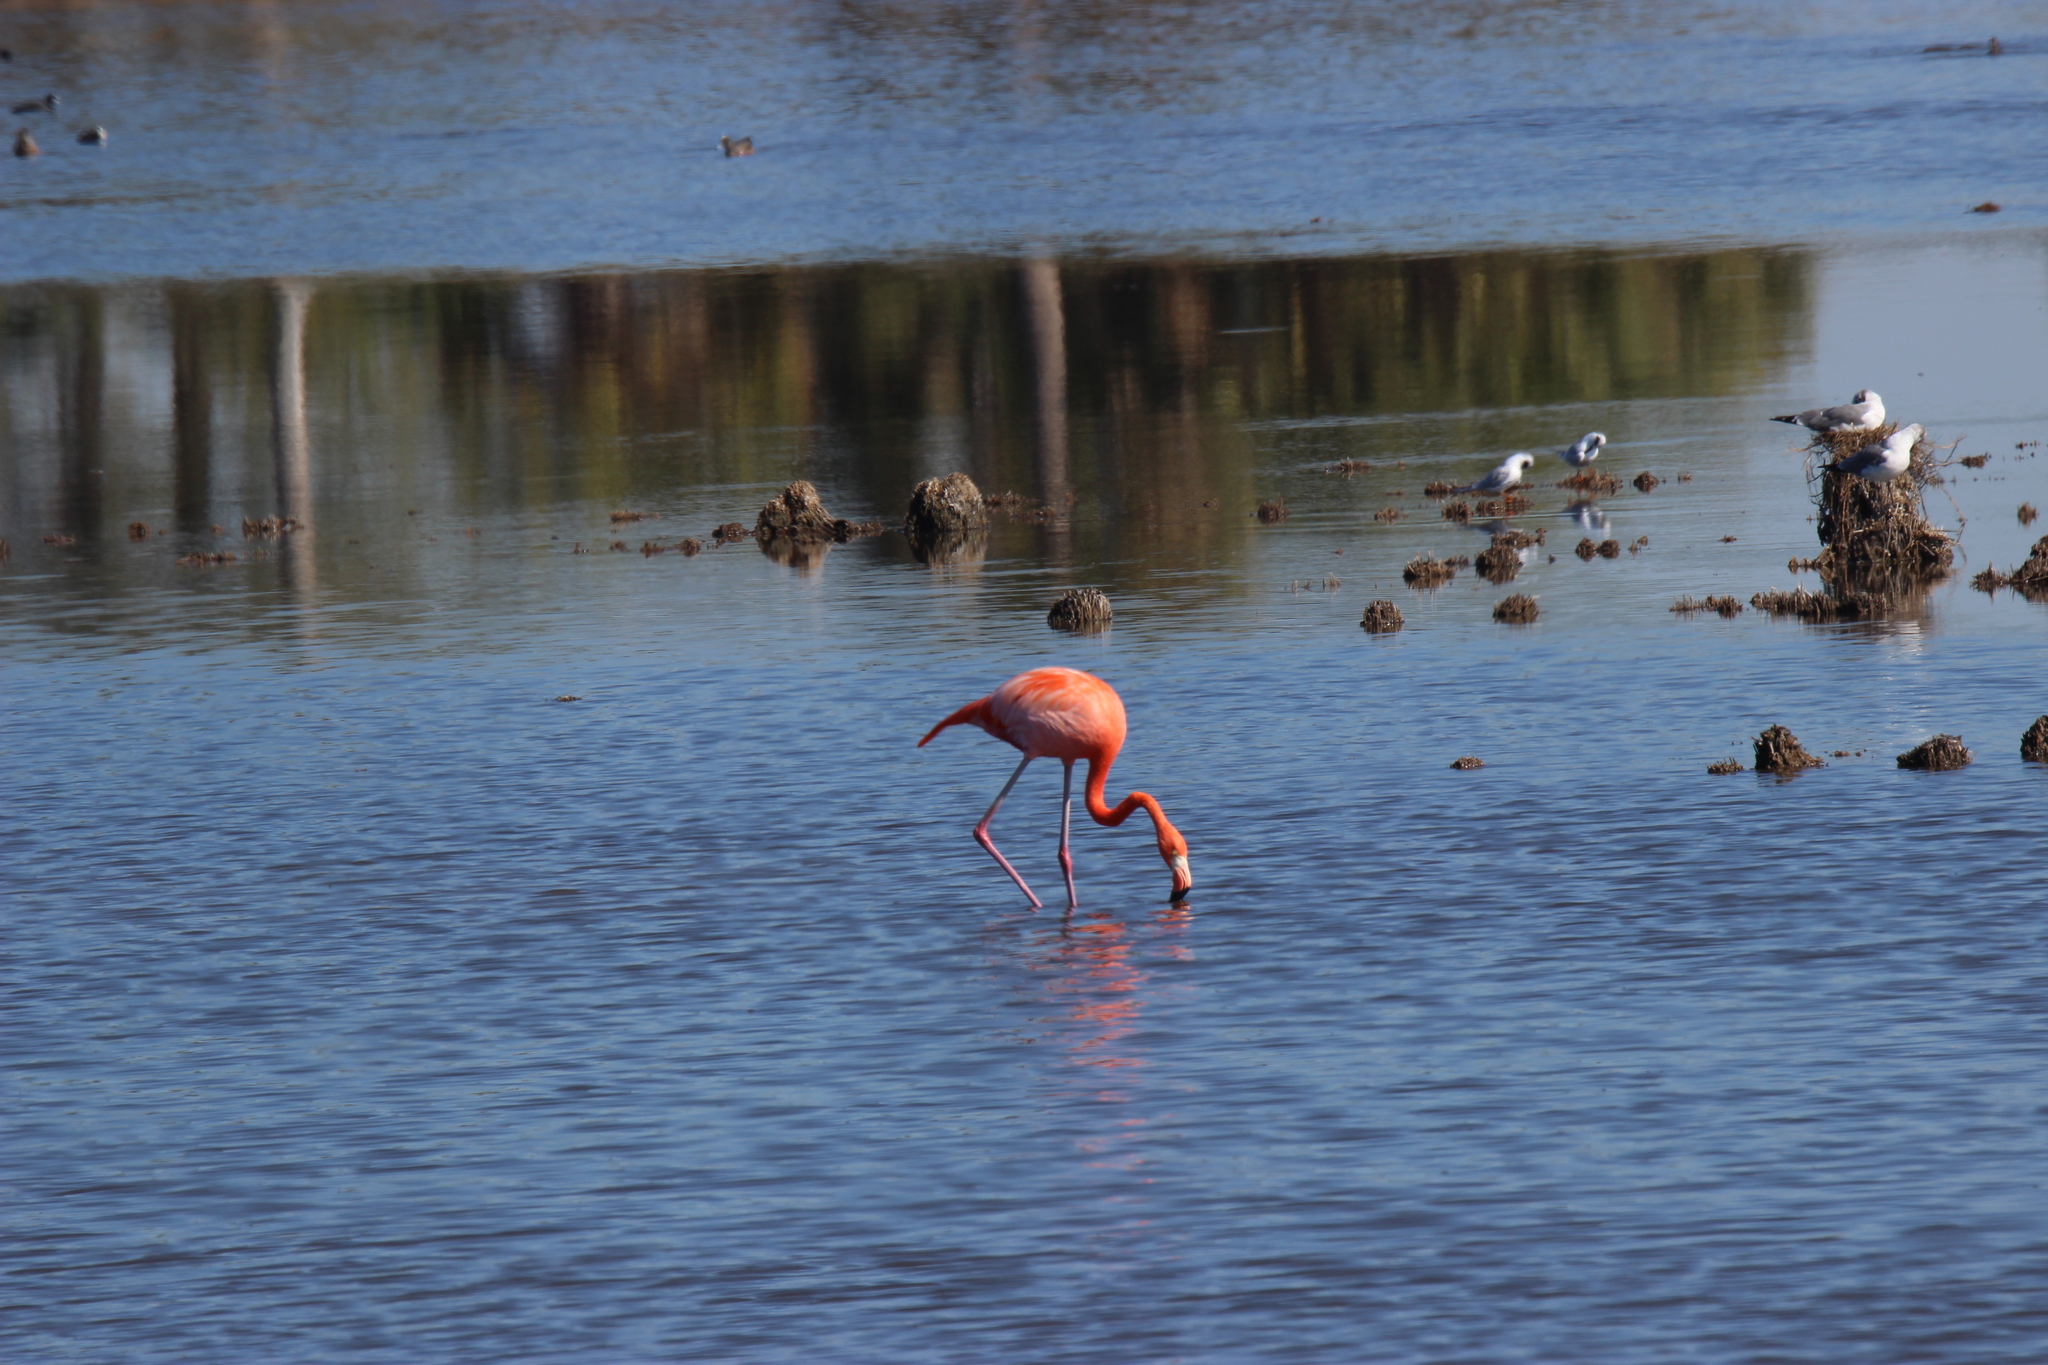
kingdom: Animalia
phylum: Chordata
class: Aves
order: Phoenicopteriformes
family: Phoenicopteridae
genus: Phoenicopterus
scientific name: Phoenicopterus ruber
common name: American flamingo
